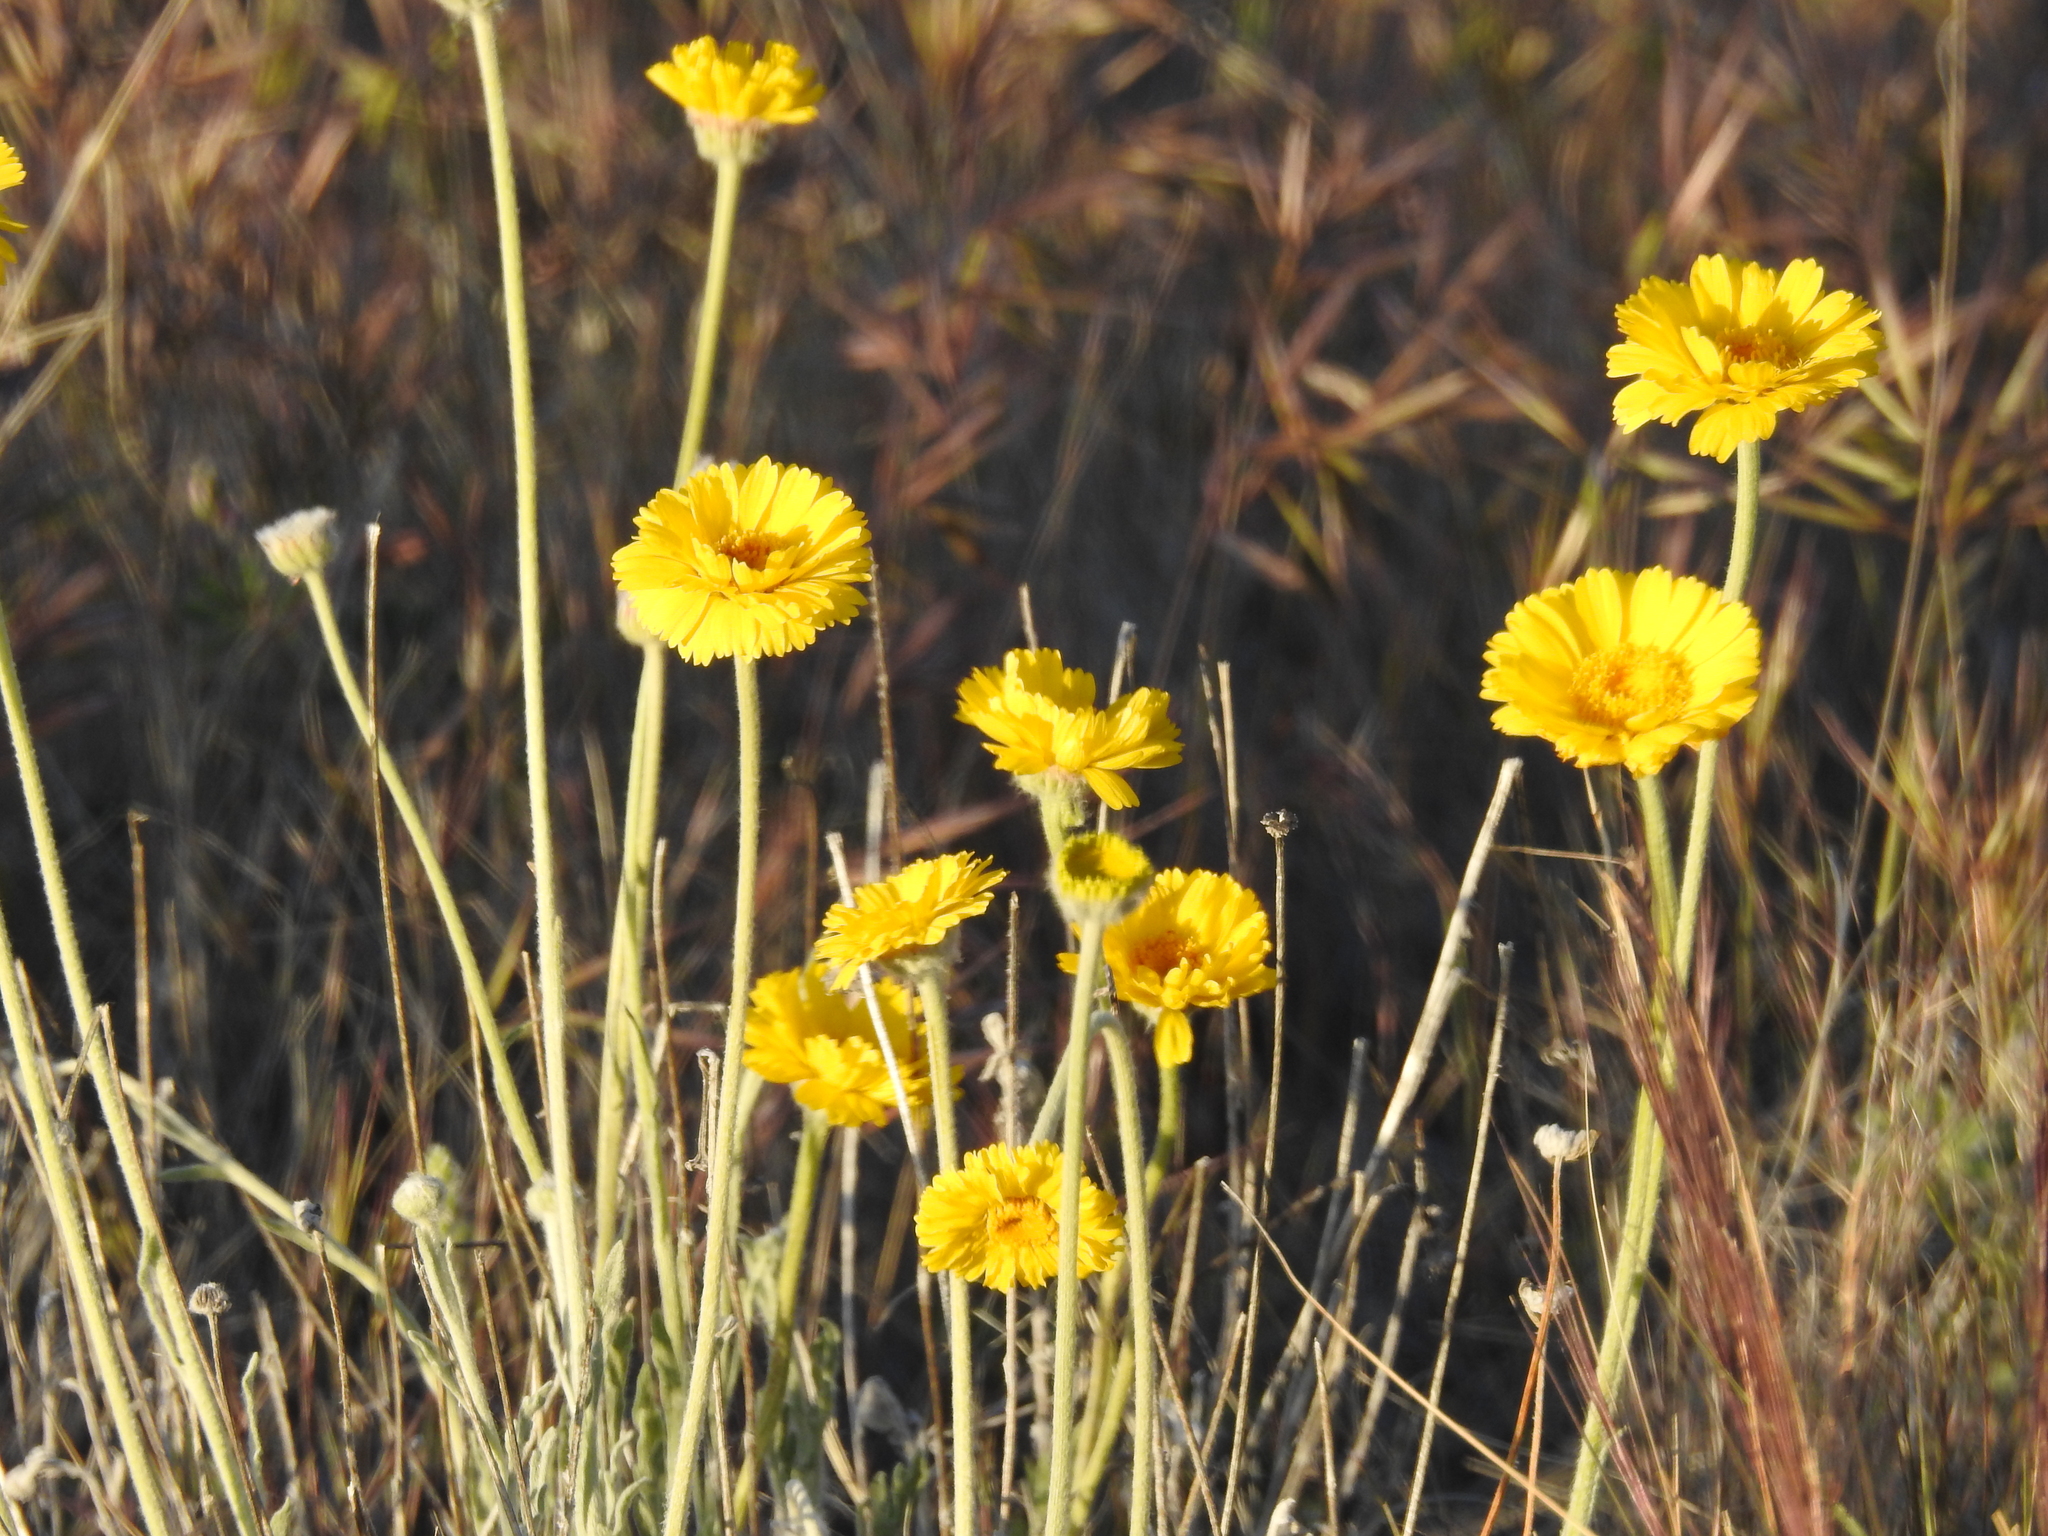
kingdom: Plantae
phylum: Tracheophyta
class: Magnoliopsida
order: Asterales
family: Asteraceae
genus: Baileya
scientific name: Baileya multiradiata
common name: Desert-marigold
